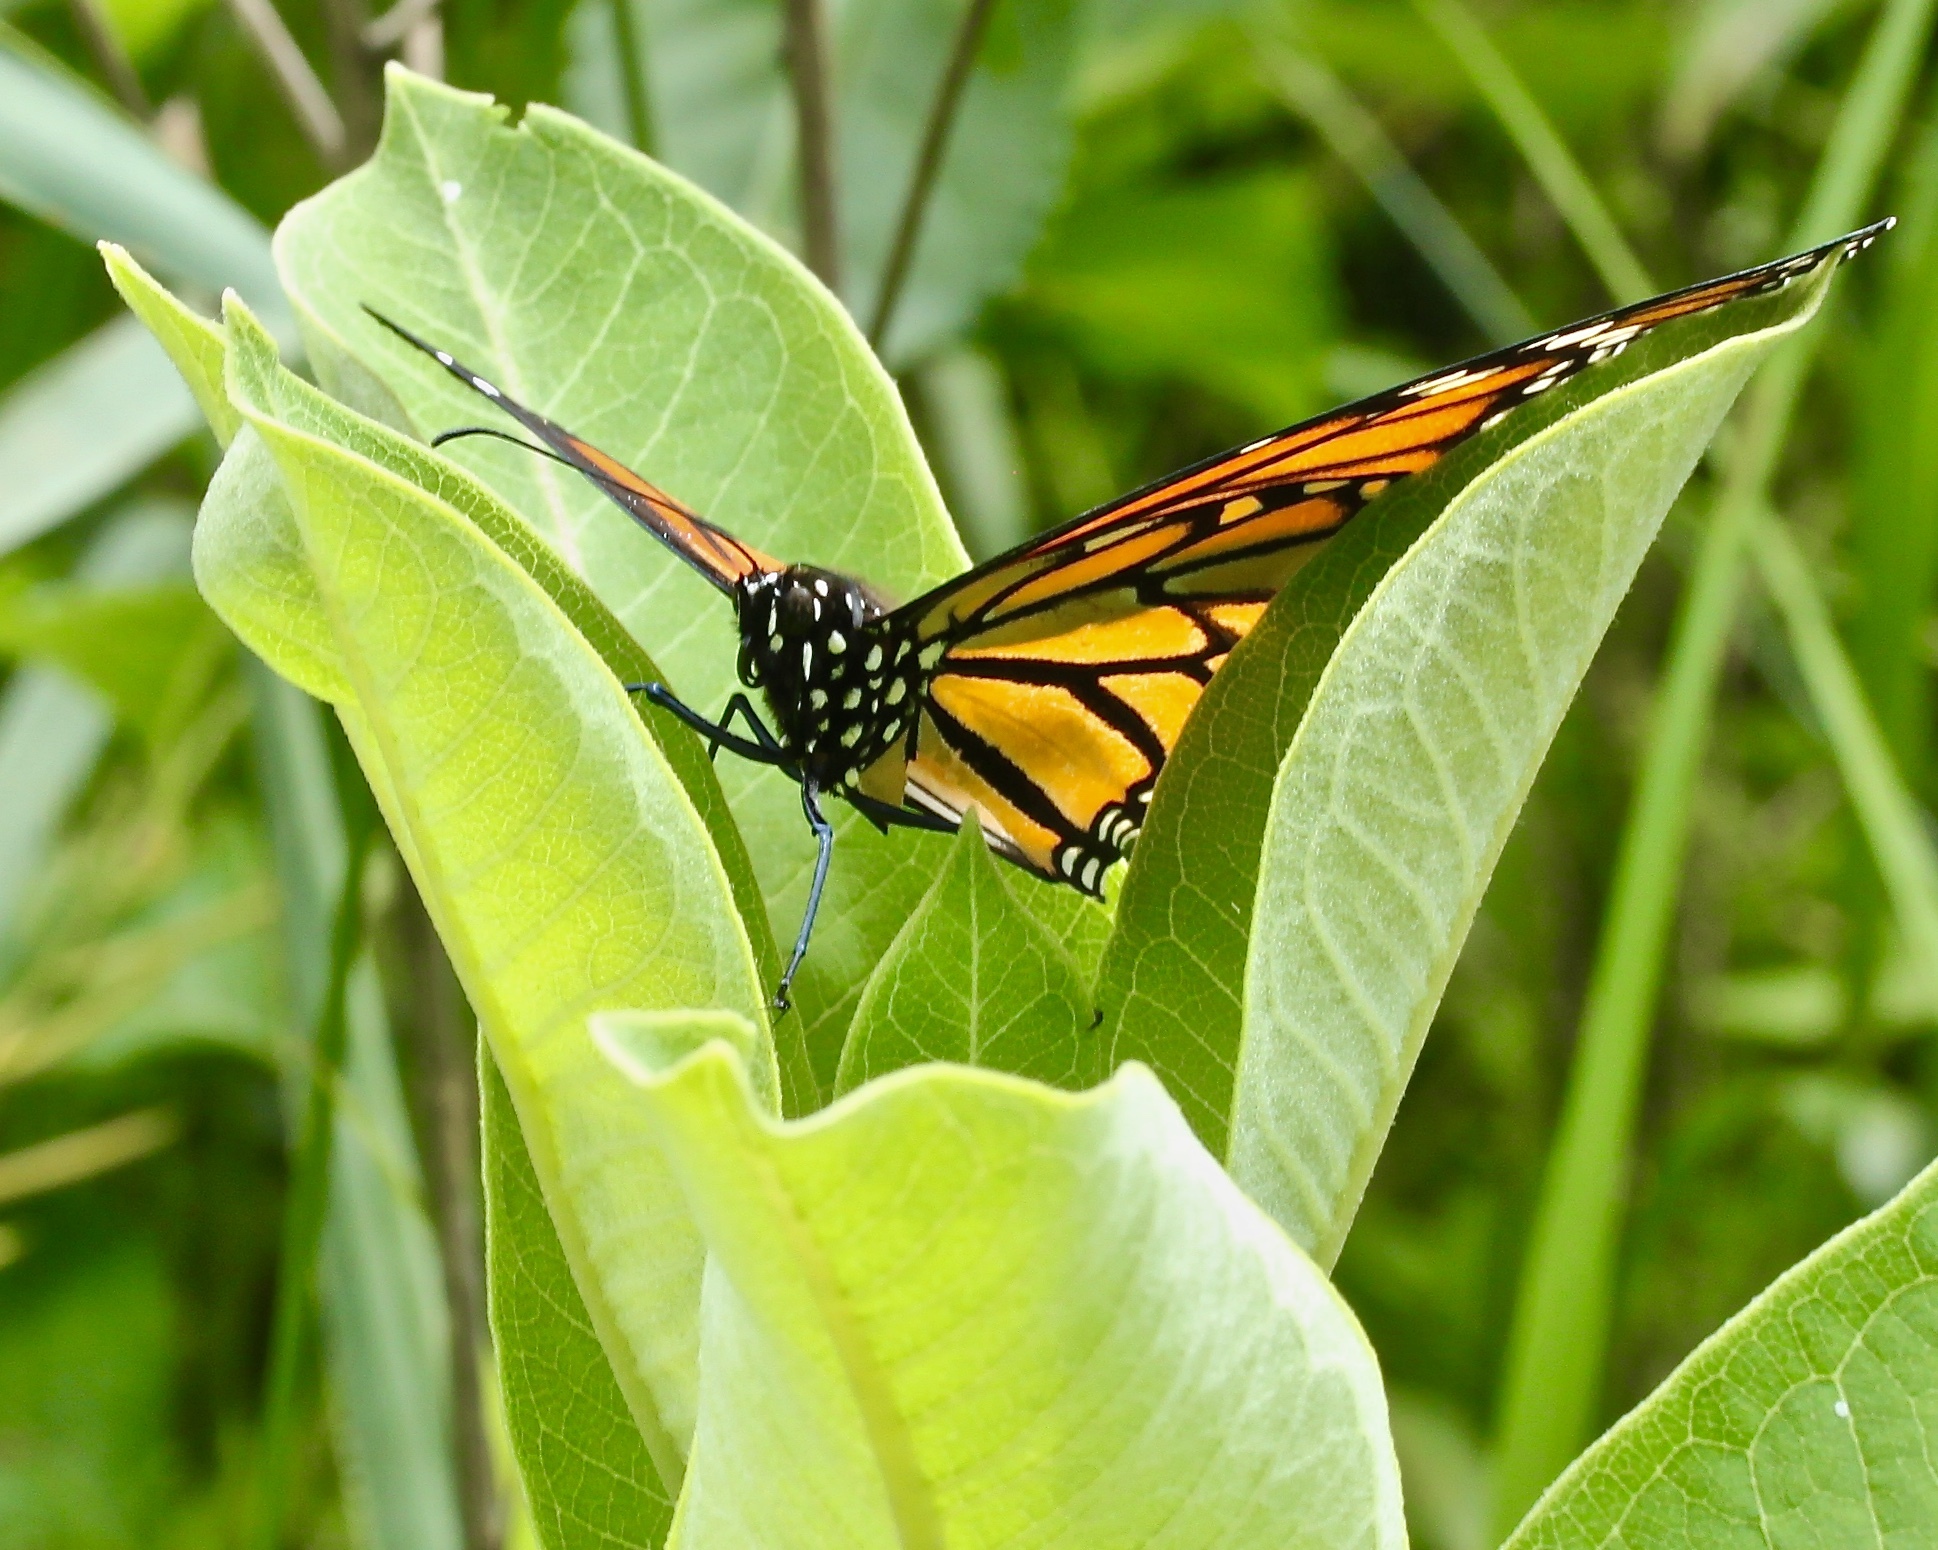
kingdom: Animalia
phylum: Arthropoda
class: Insecta
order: Lepidoptera
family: Nymphalidae
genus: Danaus
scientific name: Danaus plexippus
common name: Monarch
